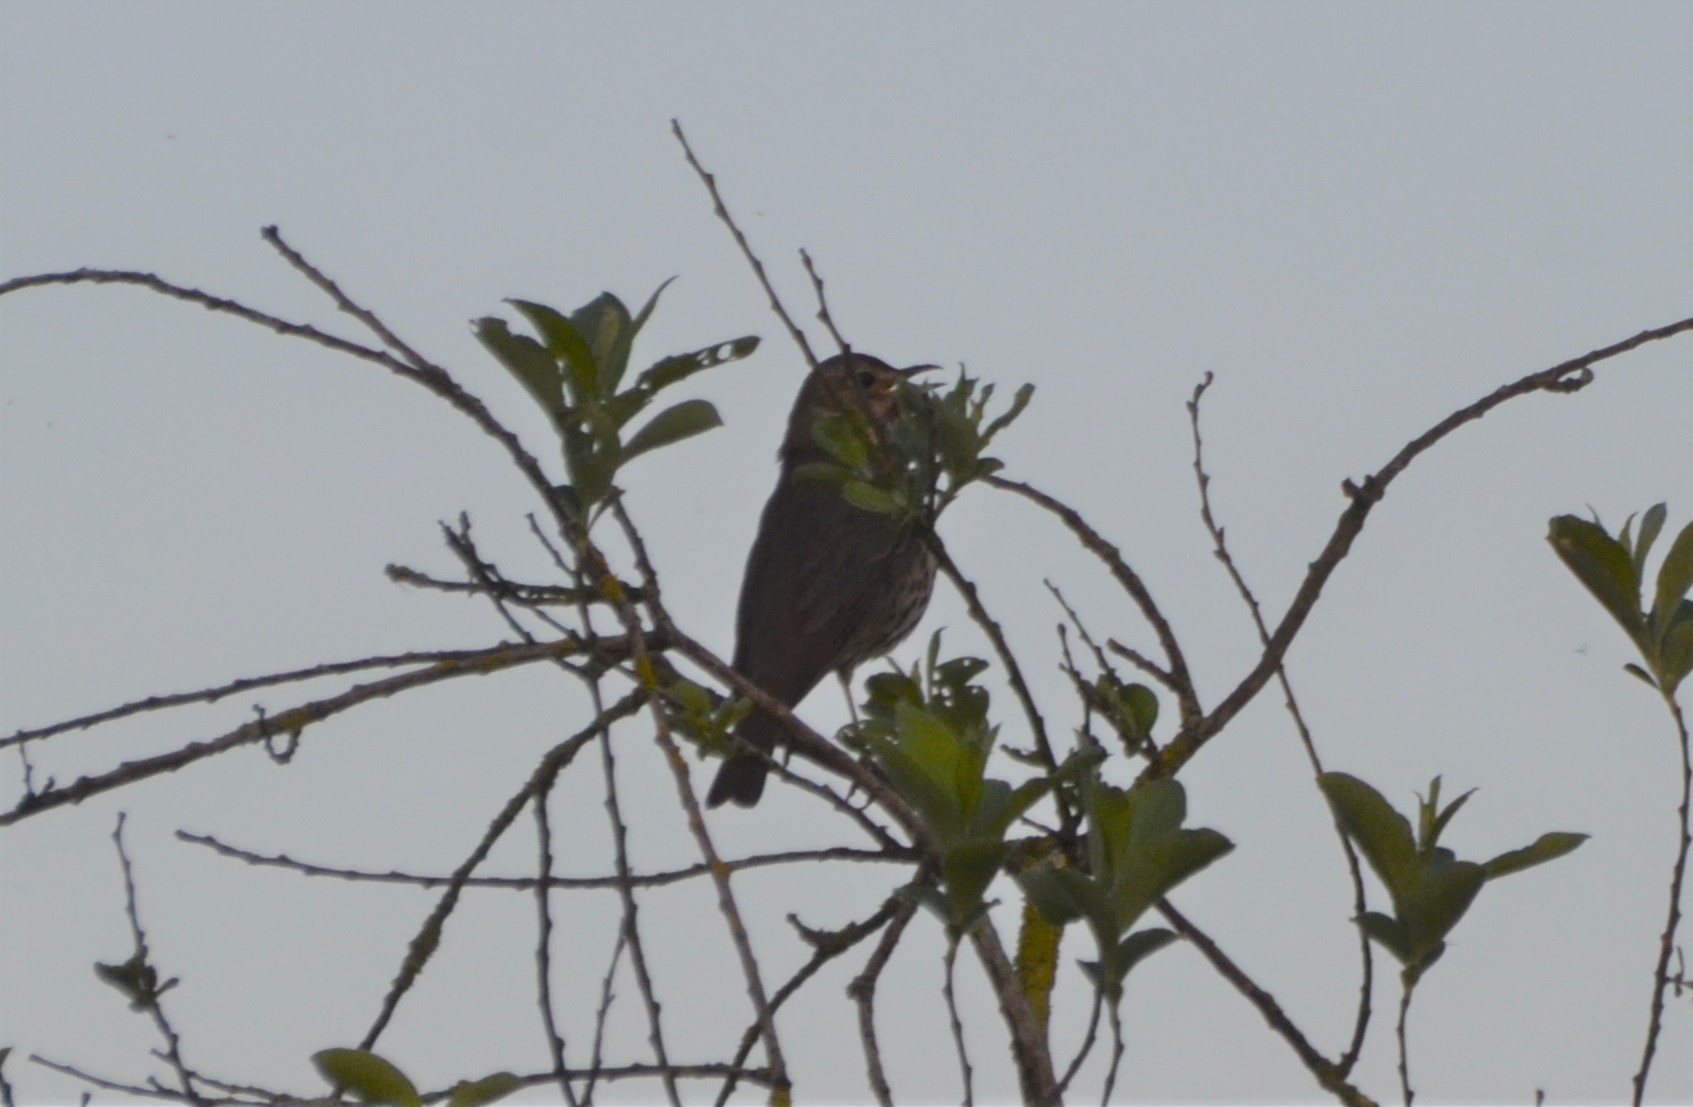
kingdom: Animalia
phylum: Chordata
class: Aves
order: Passeriformes
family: Turdidae
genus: Turdus
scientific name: Turdus philomelos
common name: Song thrush
